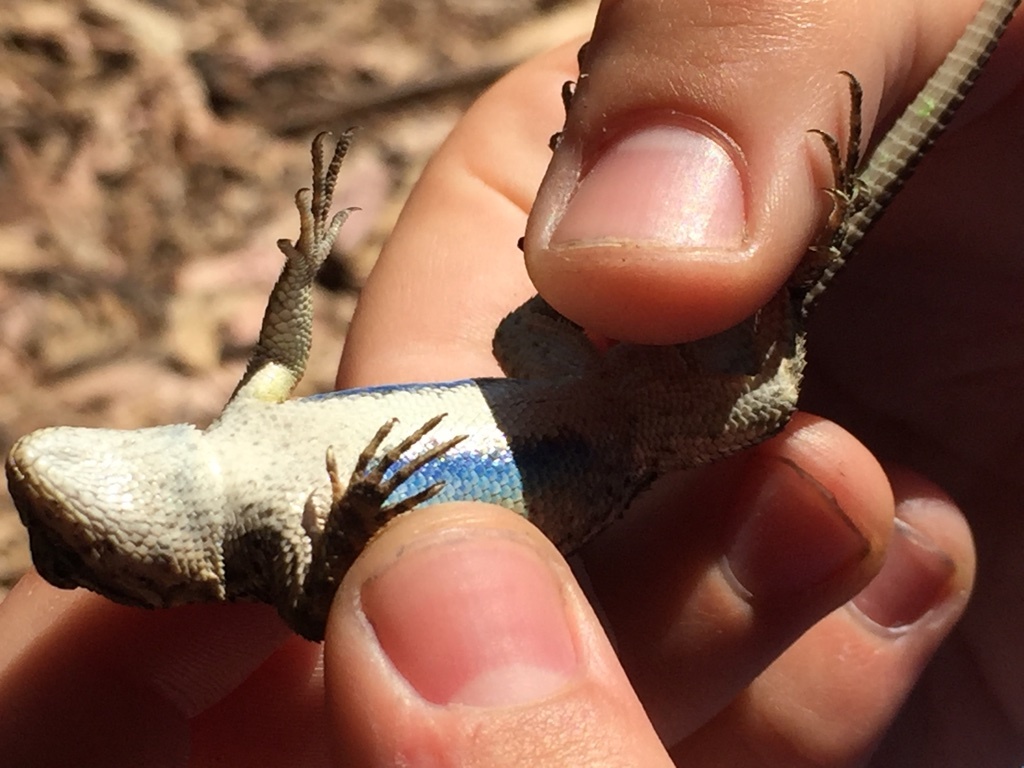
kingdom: Animalia
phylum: Chordata
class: Squamata
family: Phrynosomatidae
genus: Sceloporus
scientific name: Sceloporus occidentalis
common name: Western fence lizard
